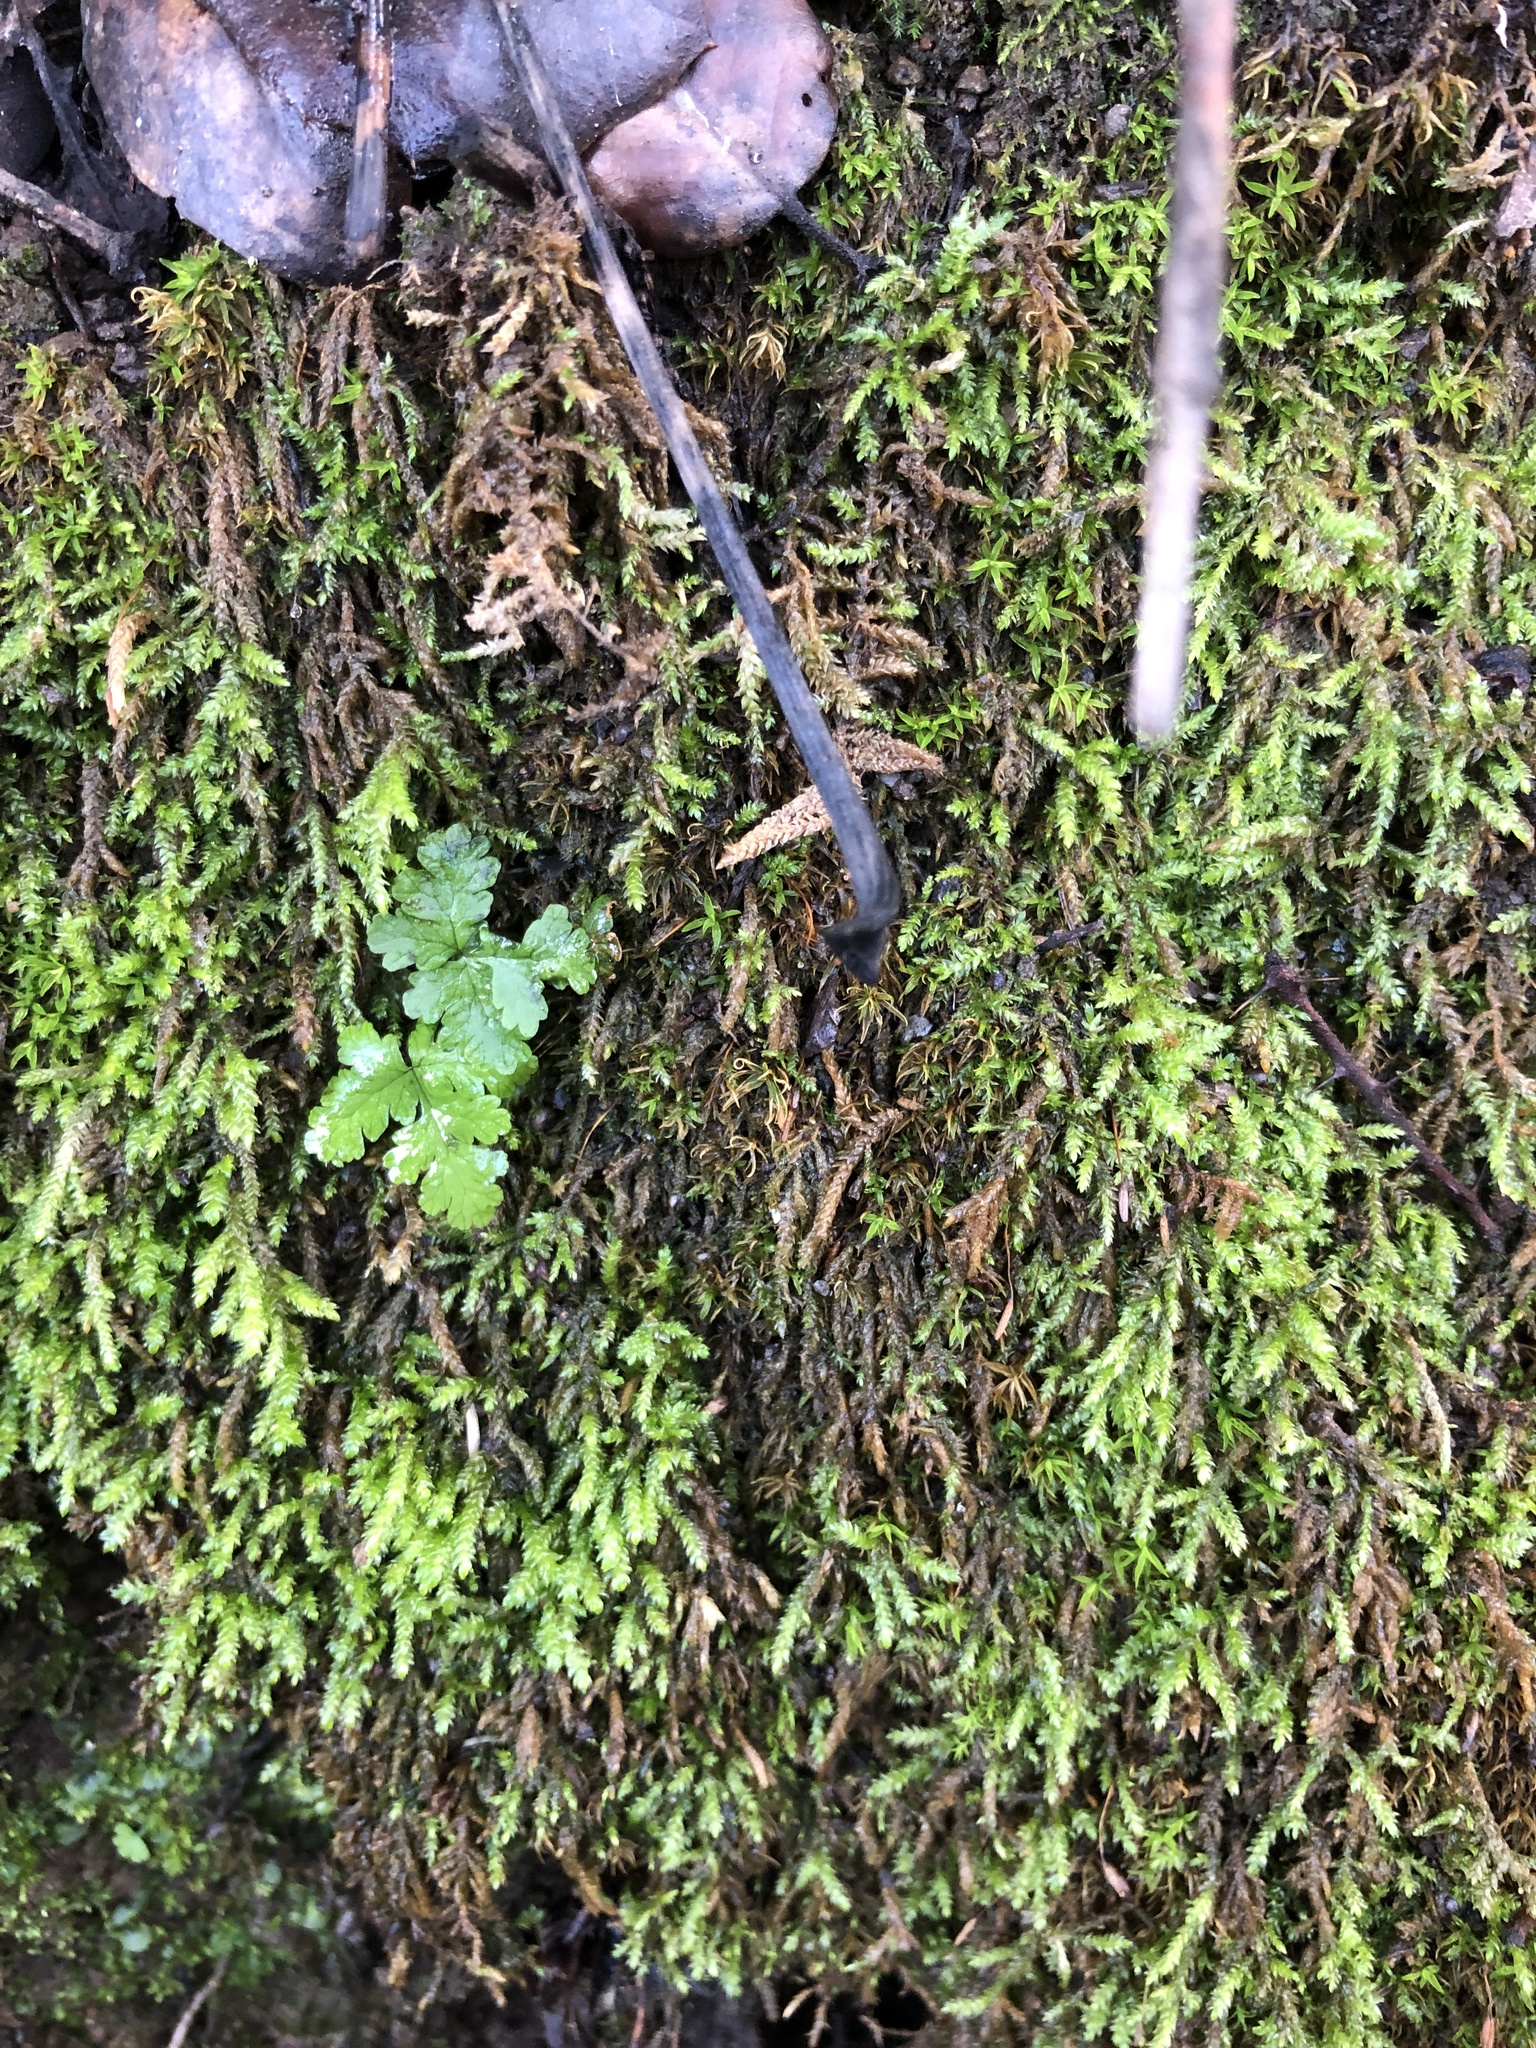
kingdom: Plantae
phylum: Tracheophyta
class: Polypodiopsida
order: Polypodiales
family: Pteridaceae
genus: Pentagramma
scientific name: Pentagramma triangularis
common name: Gold fern
